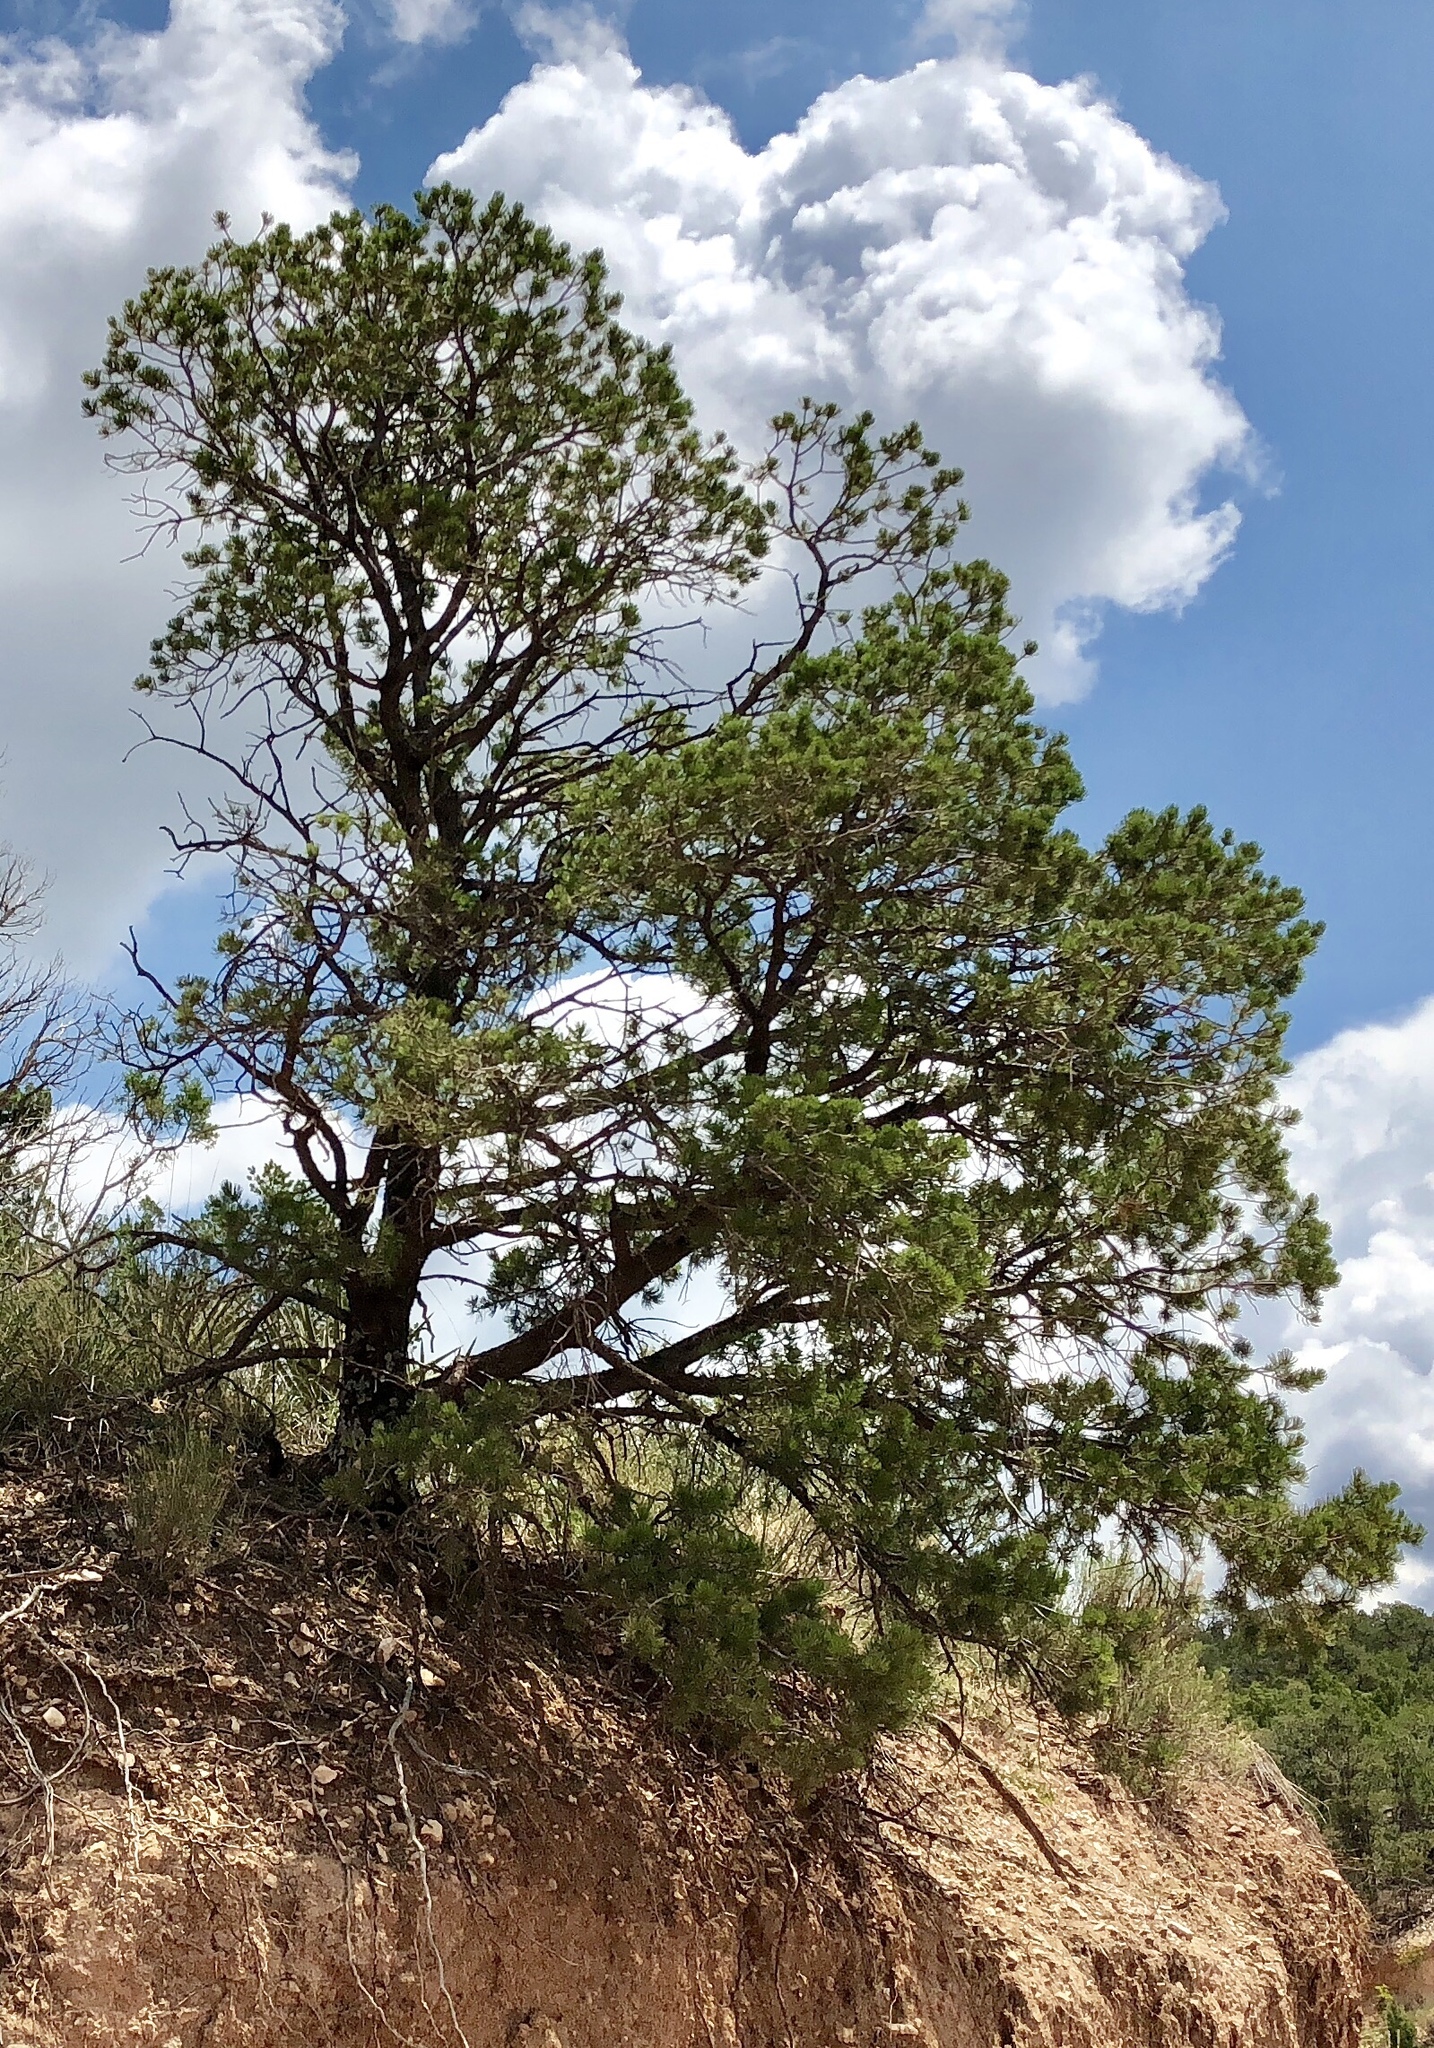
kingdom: Plantae
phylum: Tracheophyta
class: Pinopsida
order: Pinales
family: Pinaceae
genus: Pinus
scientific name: Pinus edulis
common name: Colorado pinyon
